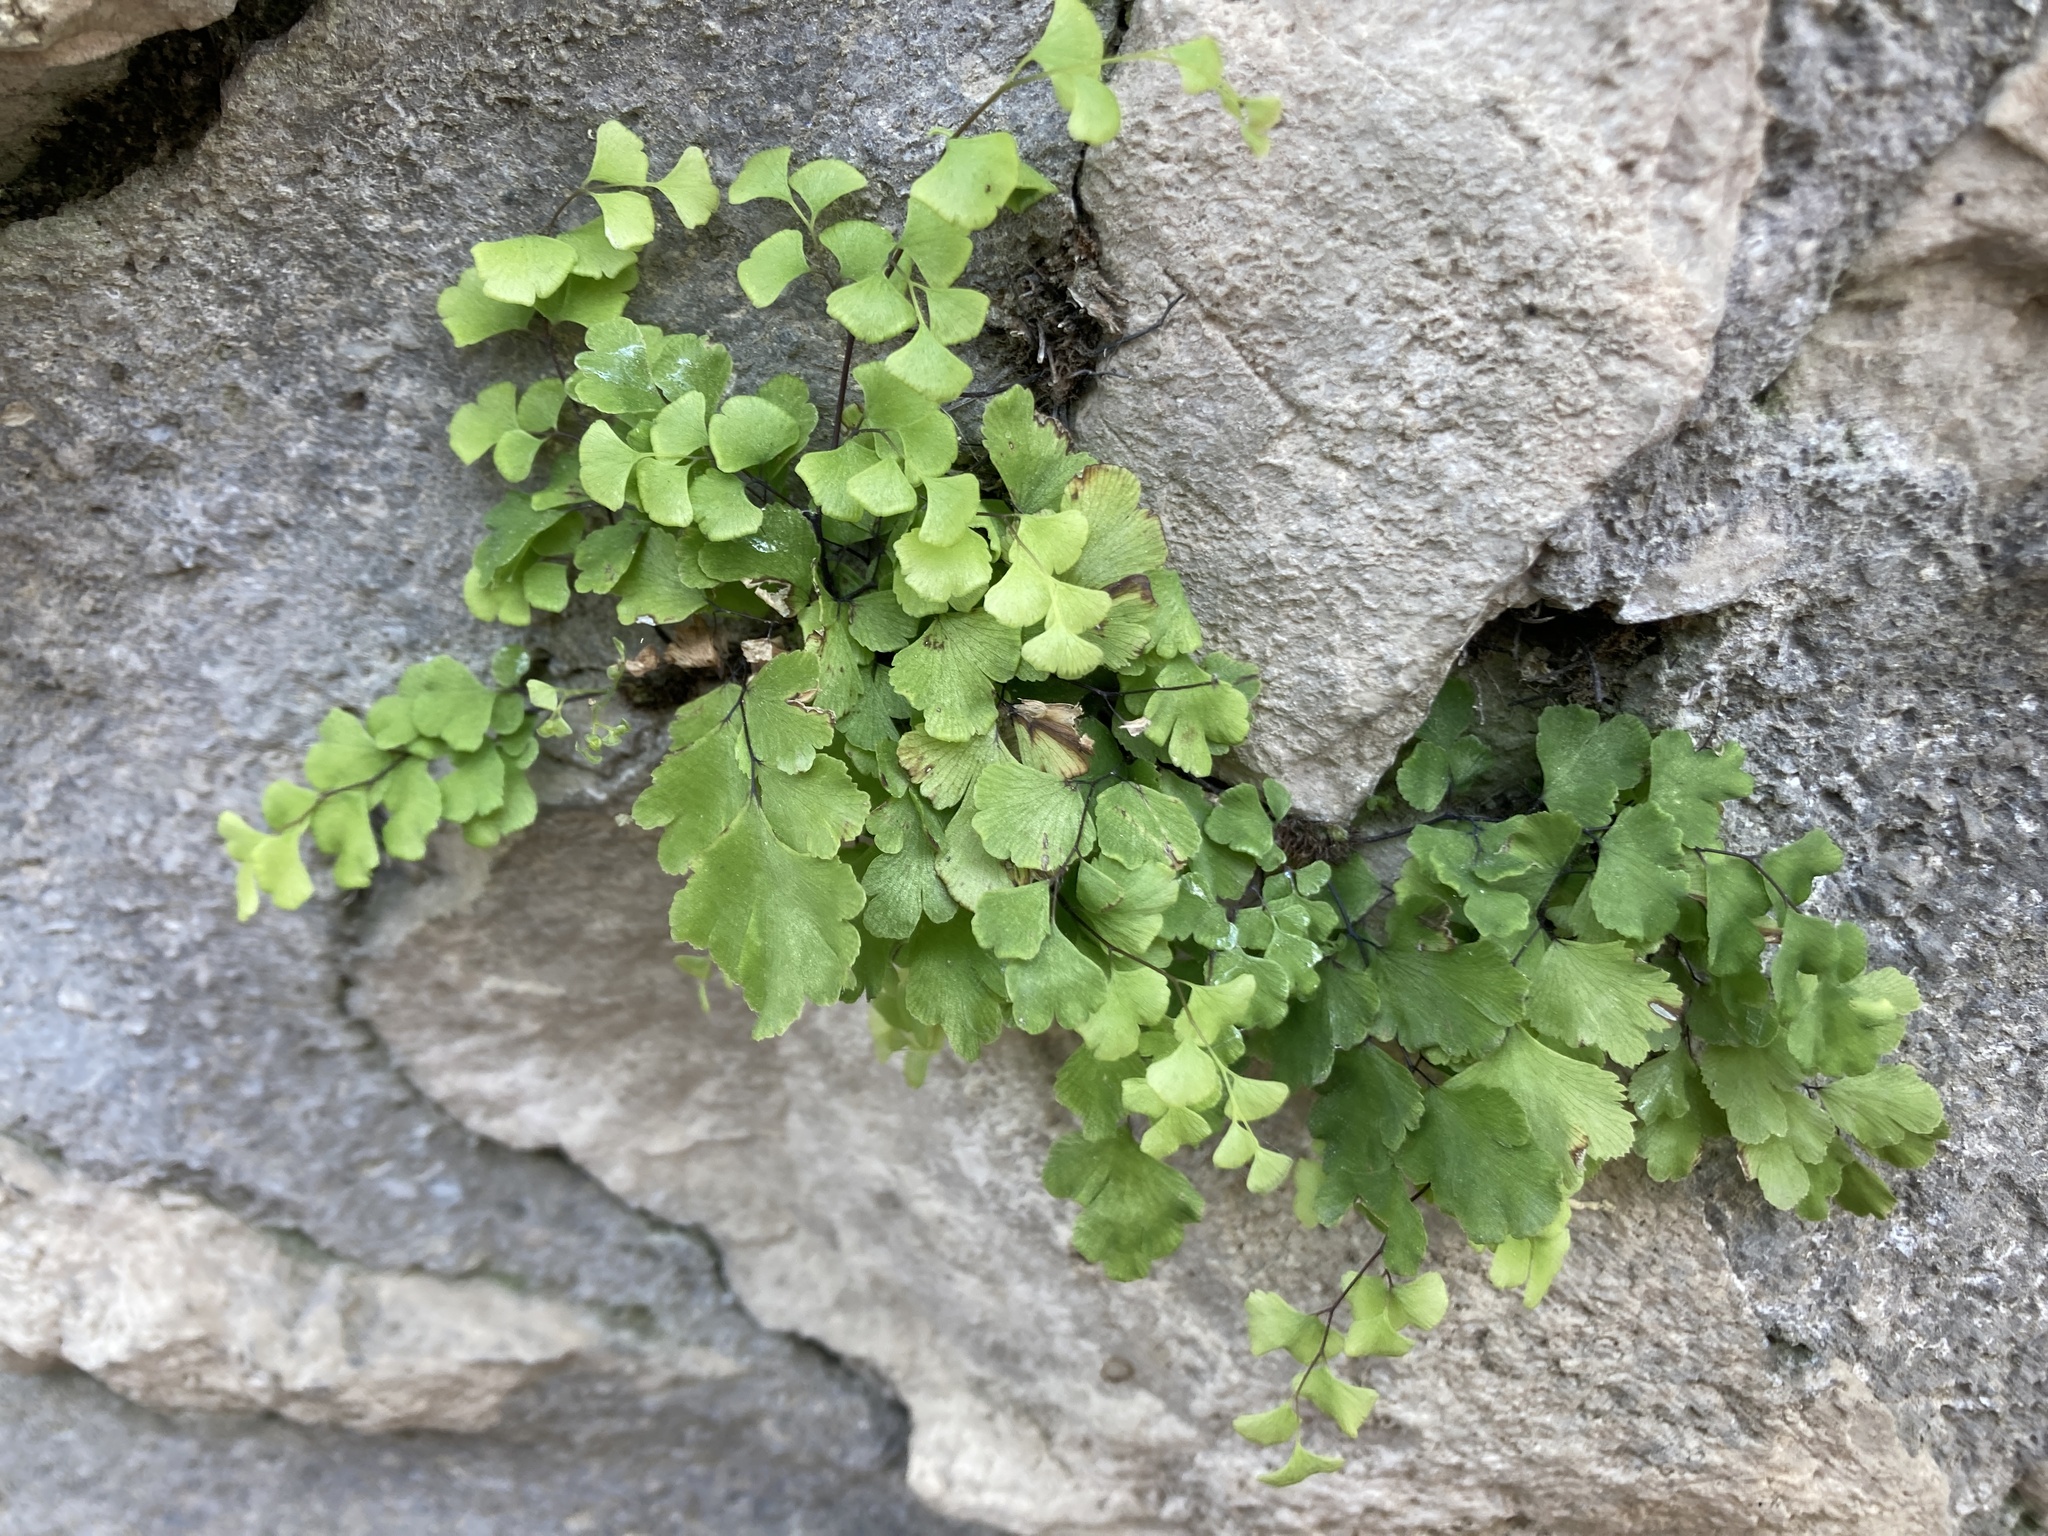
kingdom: Plantae
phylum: Tracheophyta
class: Polypodiopsida
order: Polypodiales
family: Pteridaceae
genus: Adiantum
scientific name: Adiantum capillus-veneris
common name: Maidenhair fern
